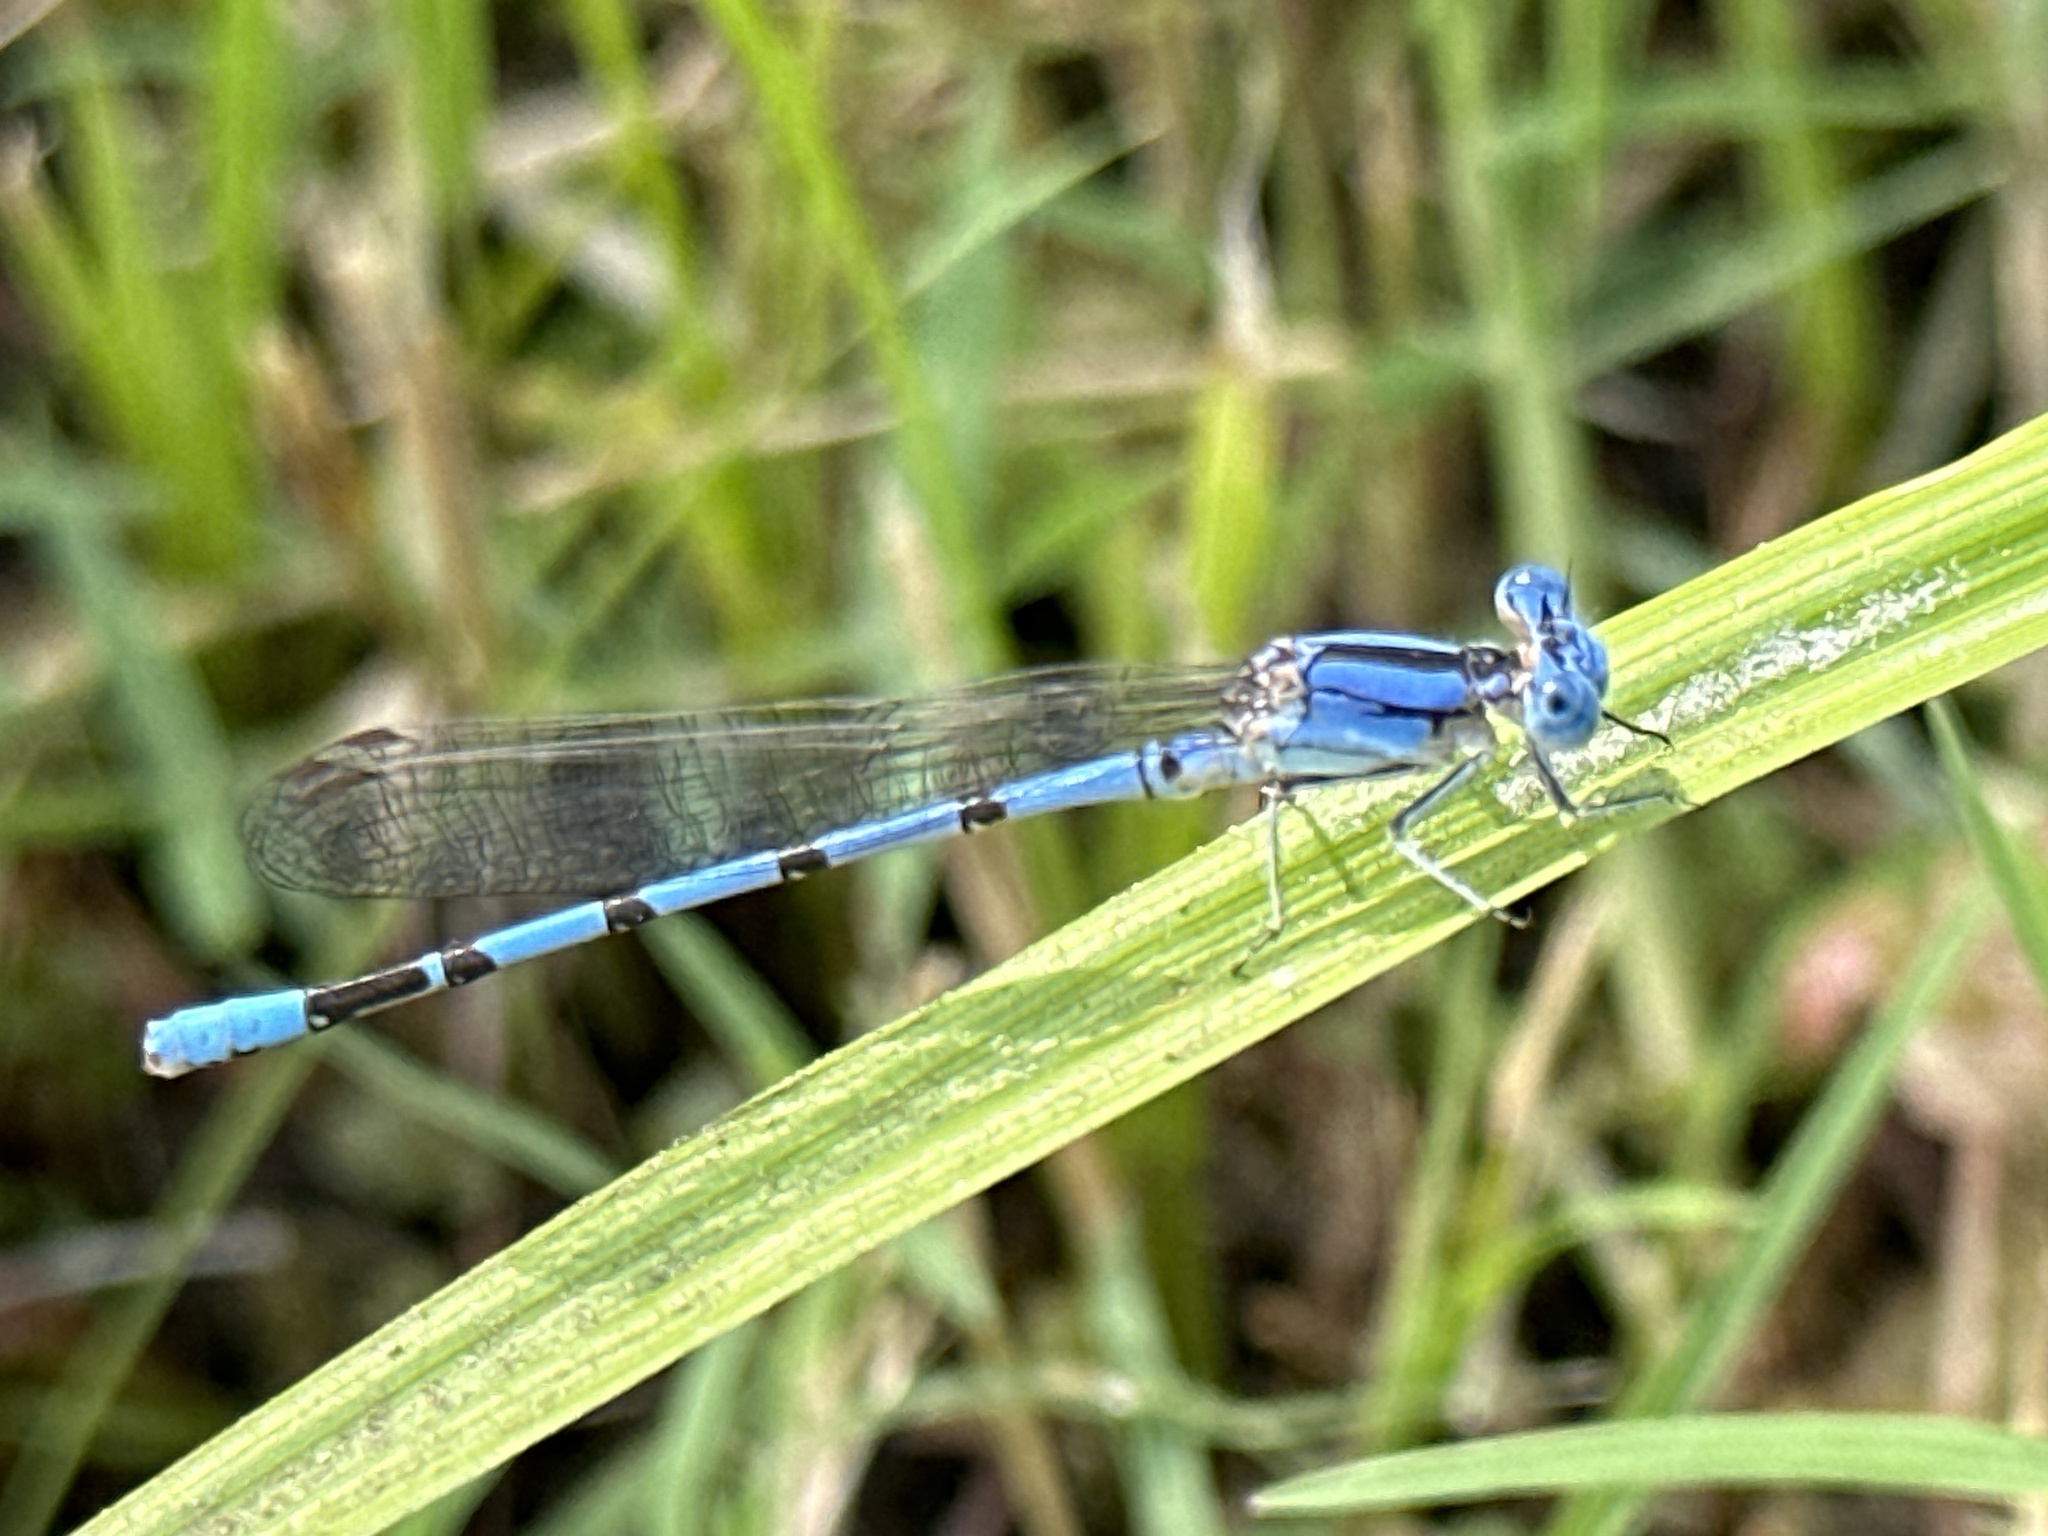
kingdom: Animalia
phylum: Arthropoda
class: Insecta
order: Odonata
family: Coenagrionidae
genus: Argia
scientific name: Argia nahuana
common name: Aztec dancer
